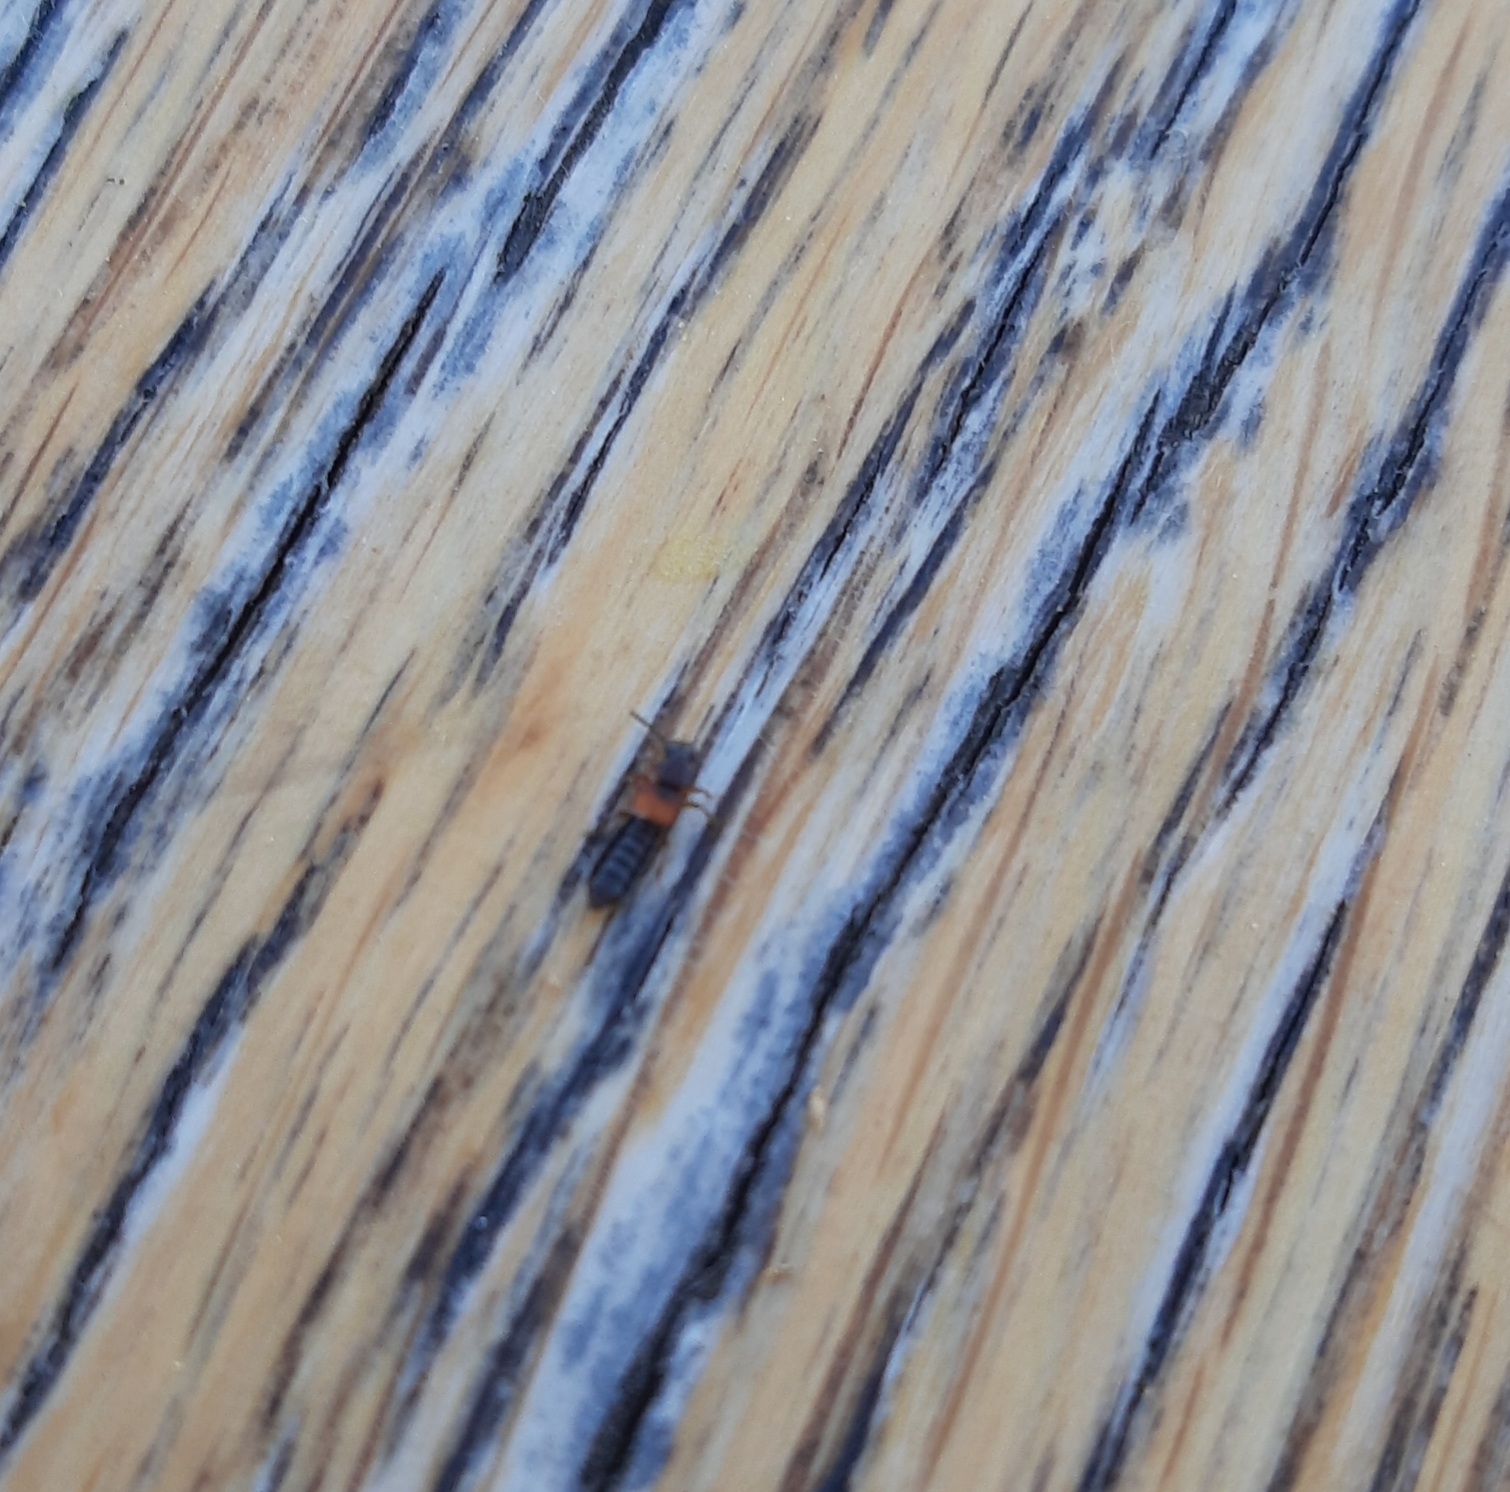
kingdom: Animalia
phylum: Arthropoda
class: Insecta
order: Coleoptera
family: Staphylinidae
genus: Anotylus
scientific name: Anotylus
